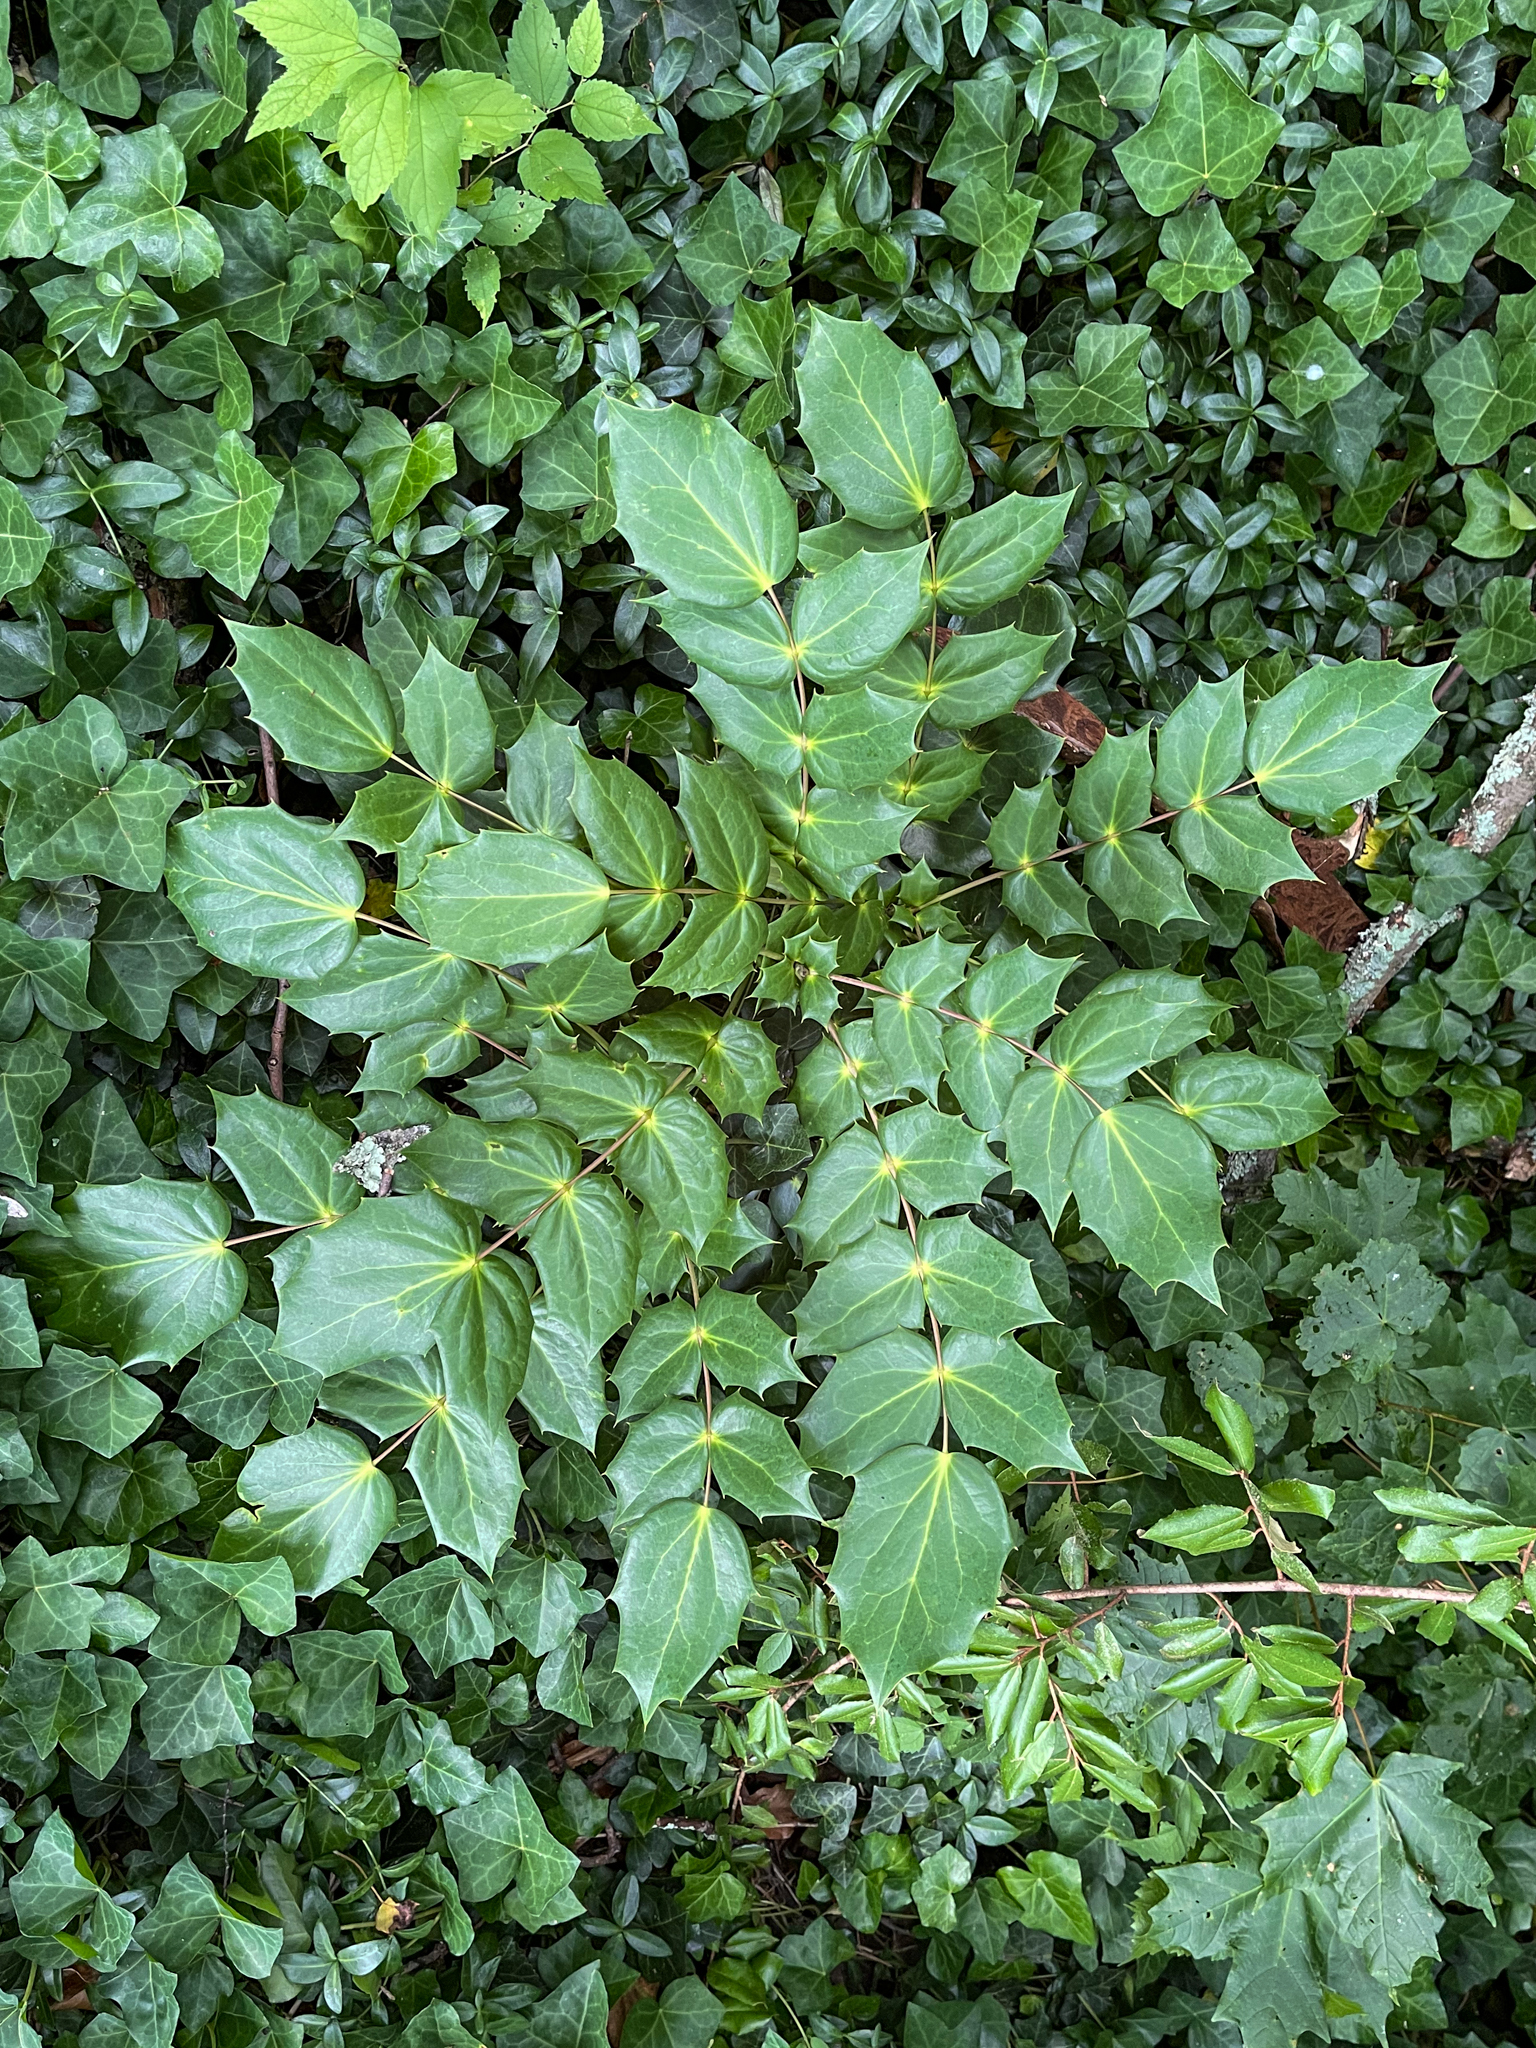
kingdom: Plantae
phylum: Tracheophyta
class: Magnoliopsida
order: Ranunculales
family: Berberidaceae
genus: Mahonia
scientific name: Mahonia bealei
